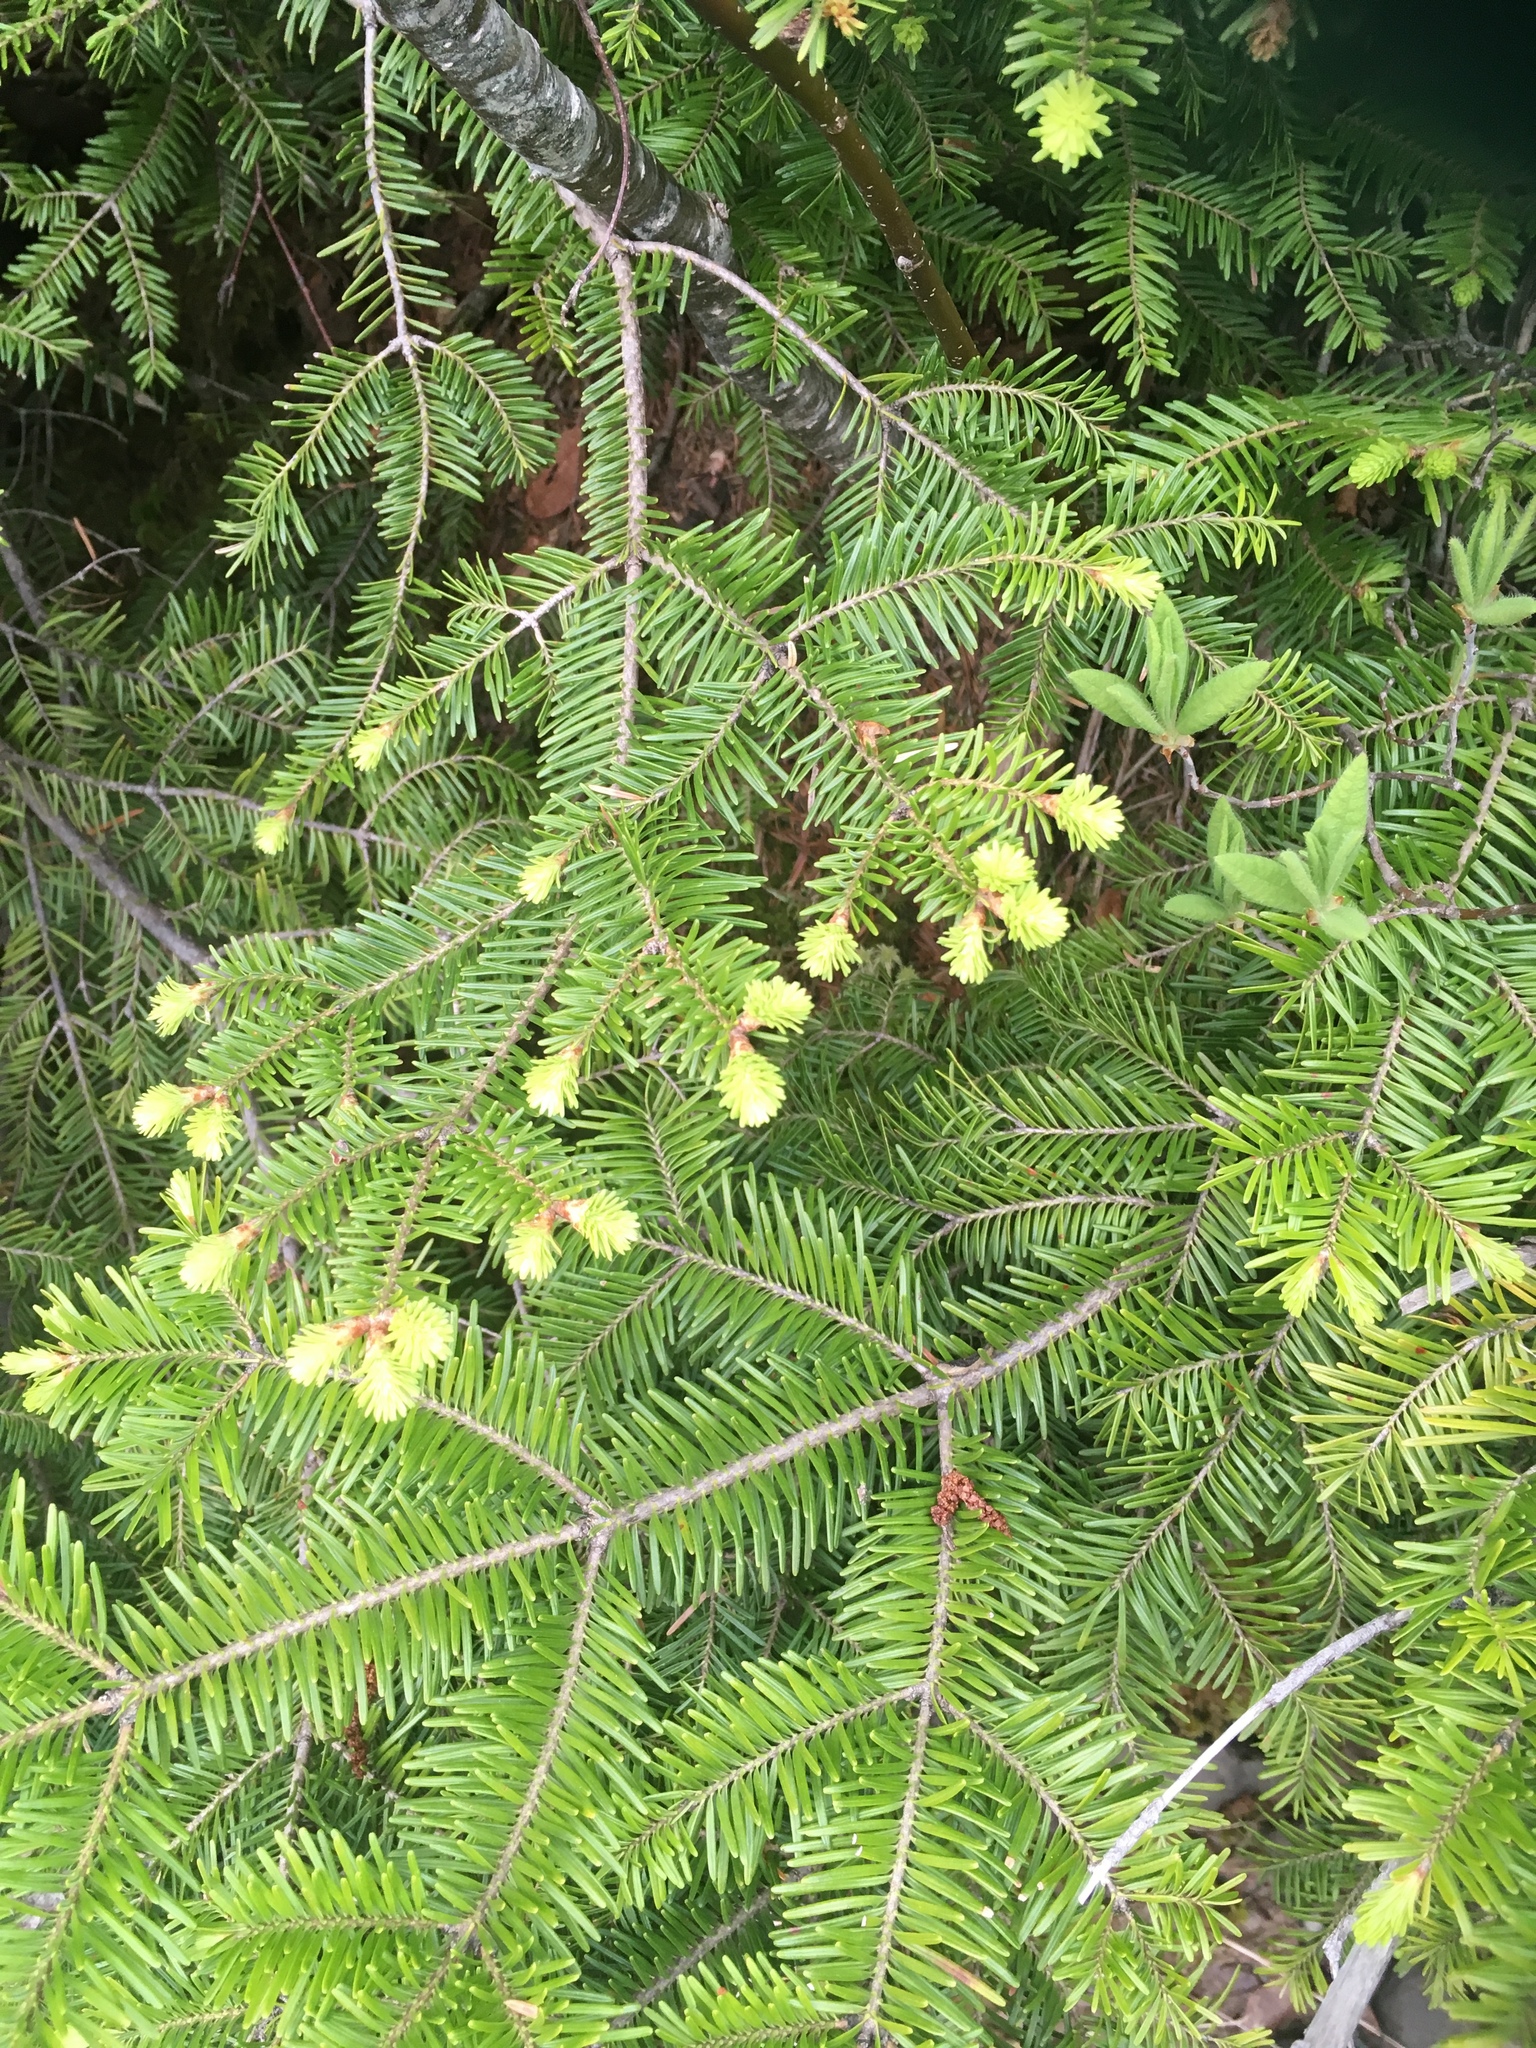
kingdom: Plantae
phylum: Tracheophyta
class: Pinopsida
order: Pinales
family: Pinaceae
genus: Abies
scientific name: Abies balsamea
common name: Balsam fir
